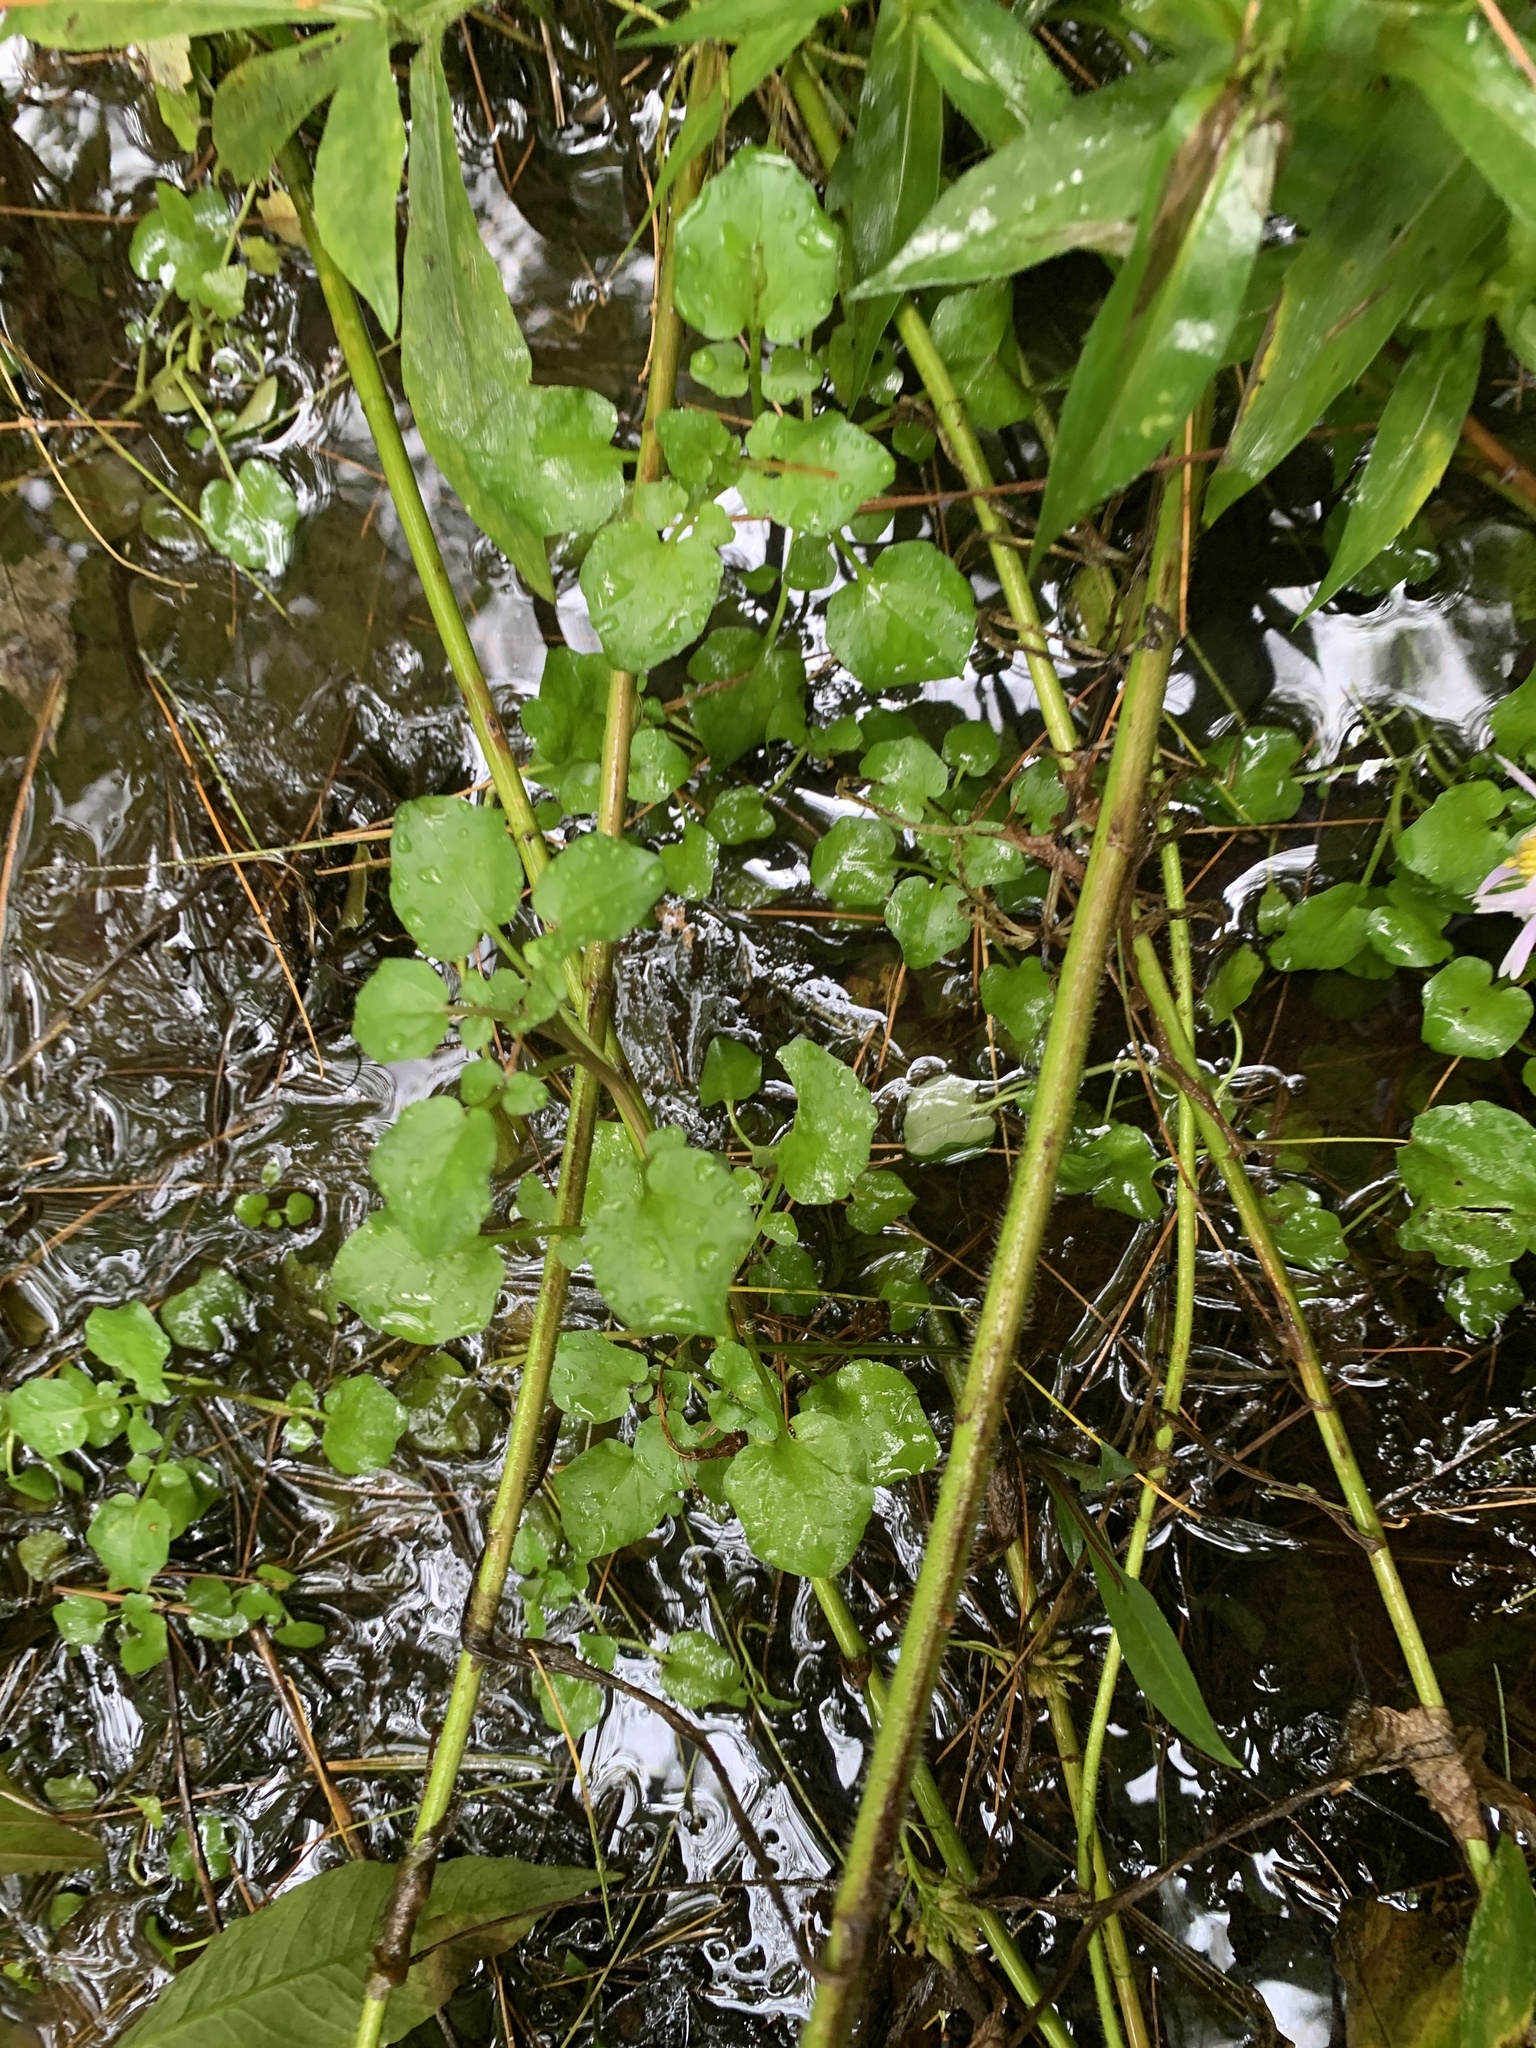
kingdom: Plantae
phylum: Tracheophyta
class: Magnoliopsida
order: Brassicales
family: Brassicaceae
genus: Nasturtium
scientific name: Nasturtium officinale
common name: Watercress
